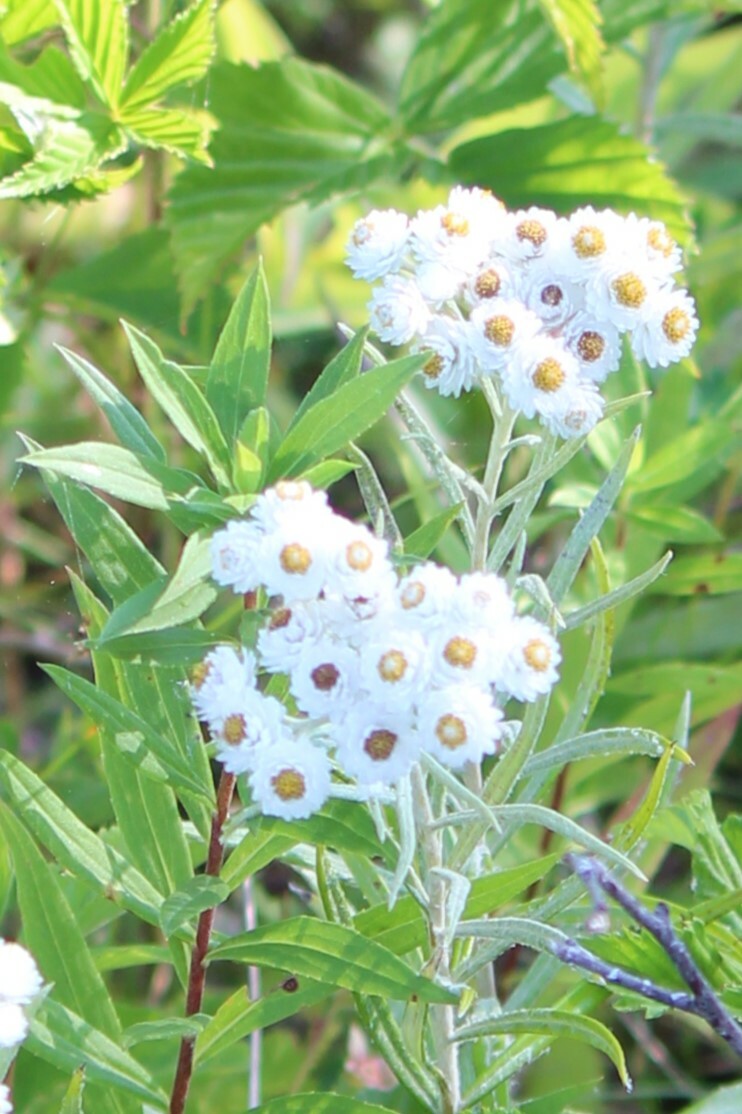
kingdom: Plantae
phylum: Tracheophyta
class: Magnoliopsida
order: Asterales
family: Asteraceae
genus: Anaphalis
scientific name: Anaphalis margaritacea
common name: Pearly everlasting
